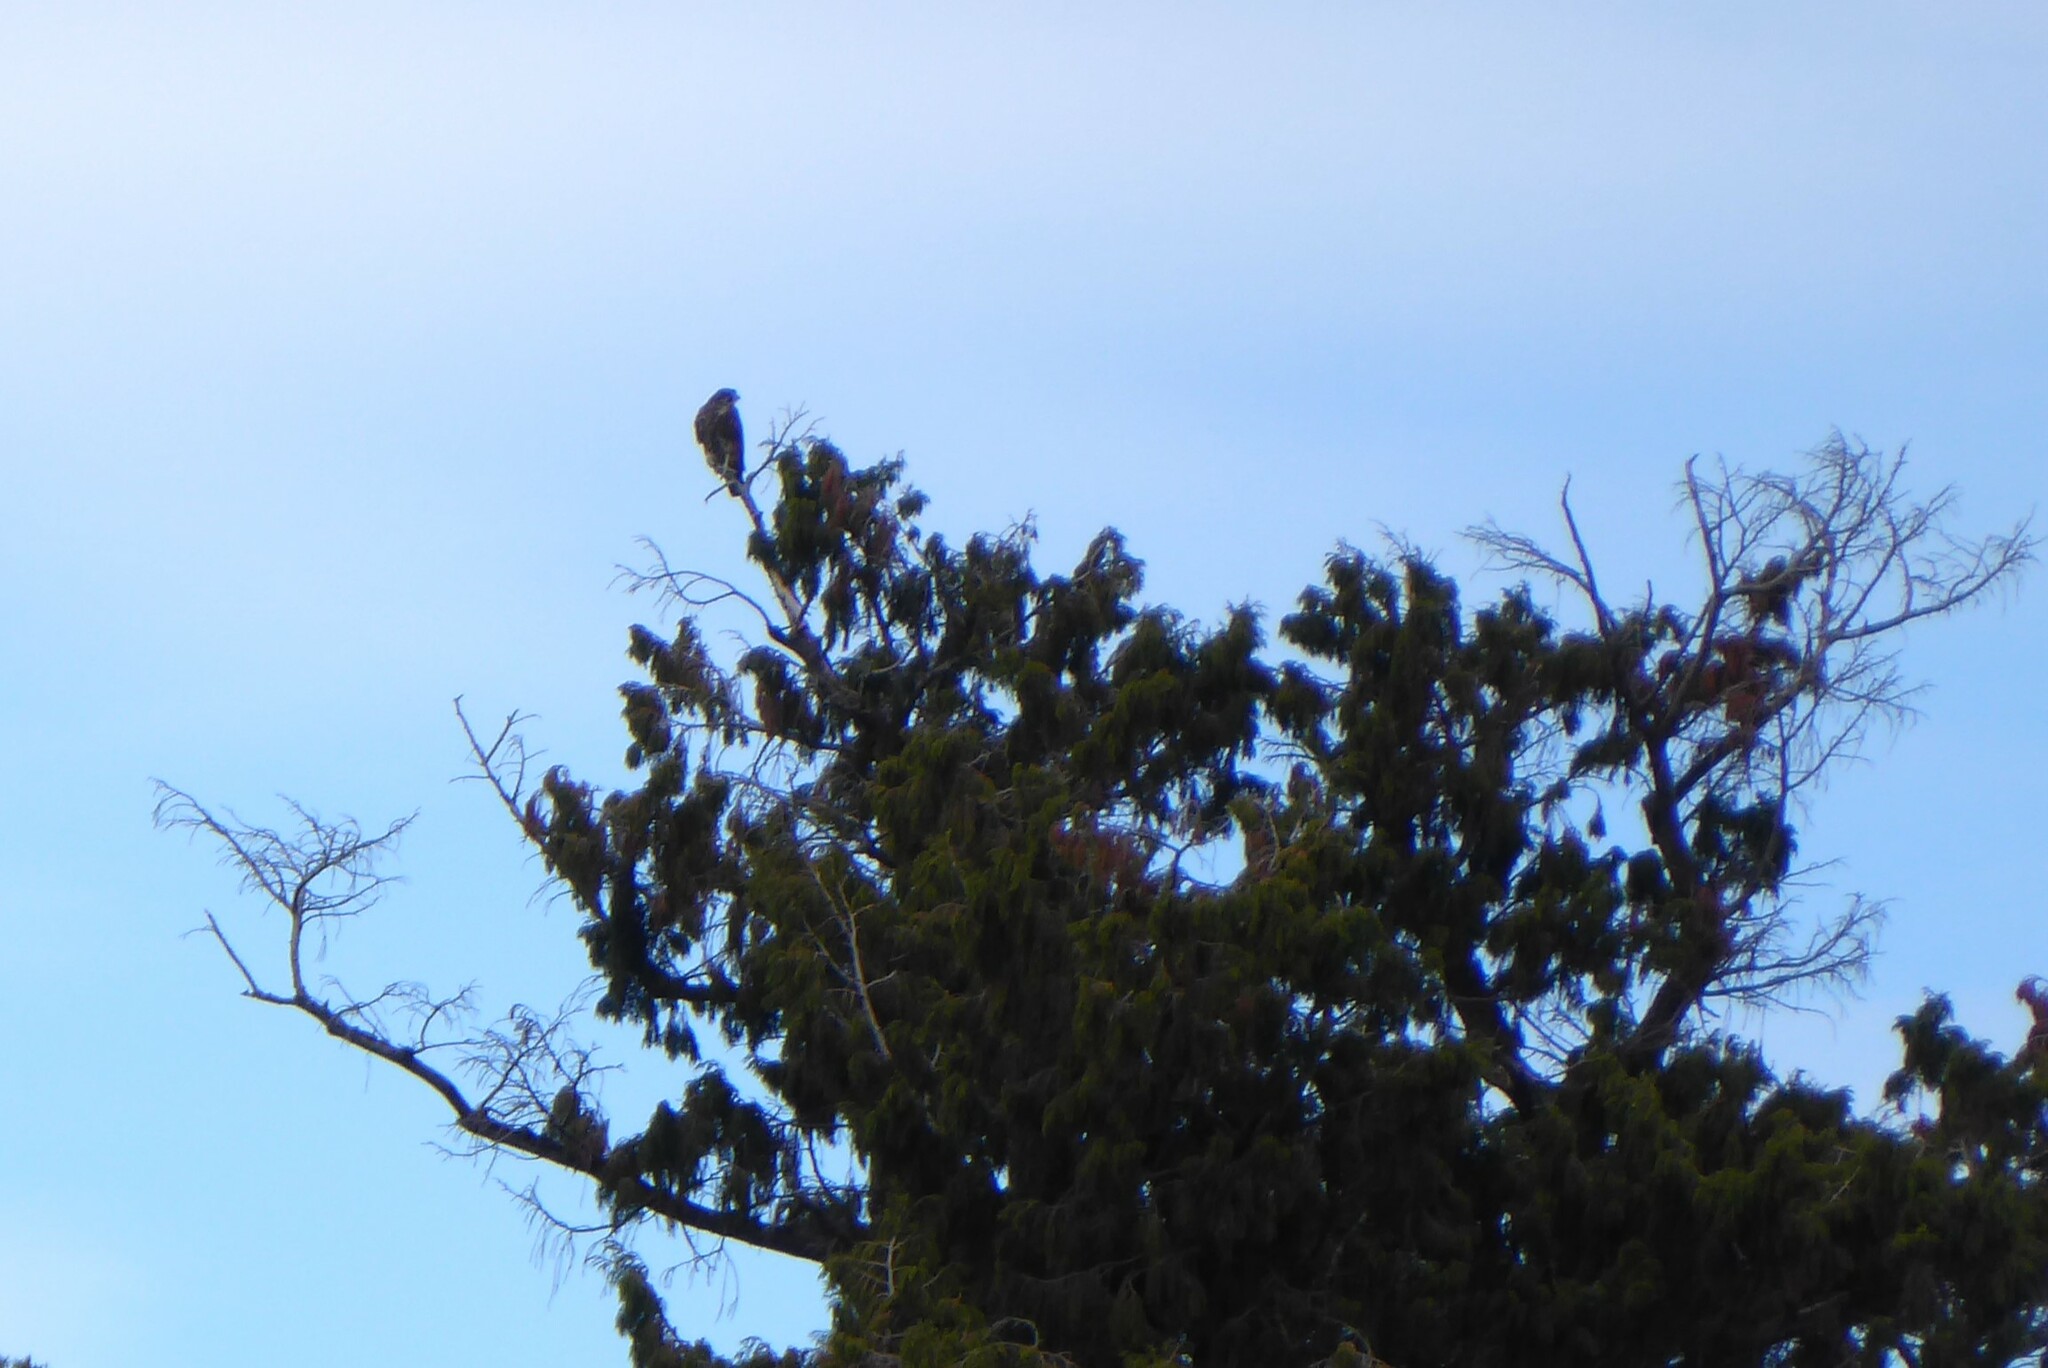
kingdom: Animalia
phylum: Chordata
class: Aves
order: Falconiformes
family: Falconidae
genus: Falco
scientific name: Falco novaeseelandiae
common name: New zealand falcon
